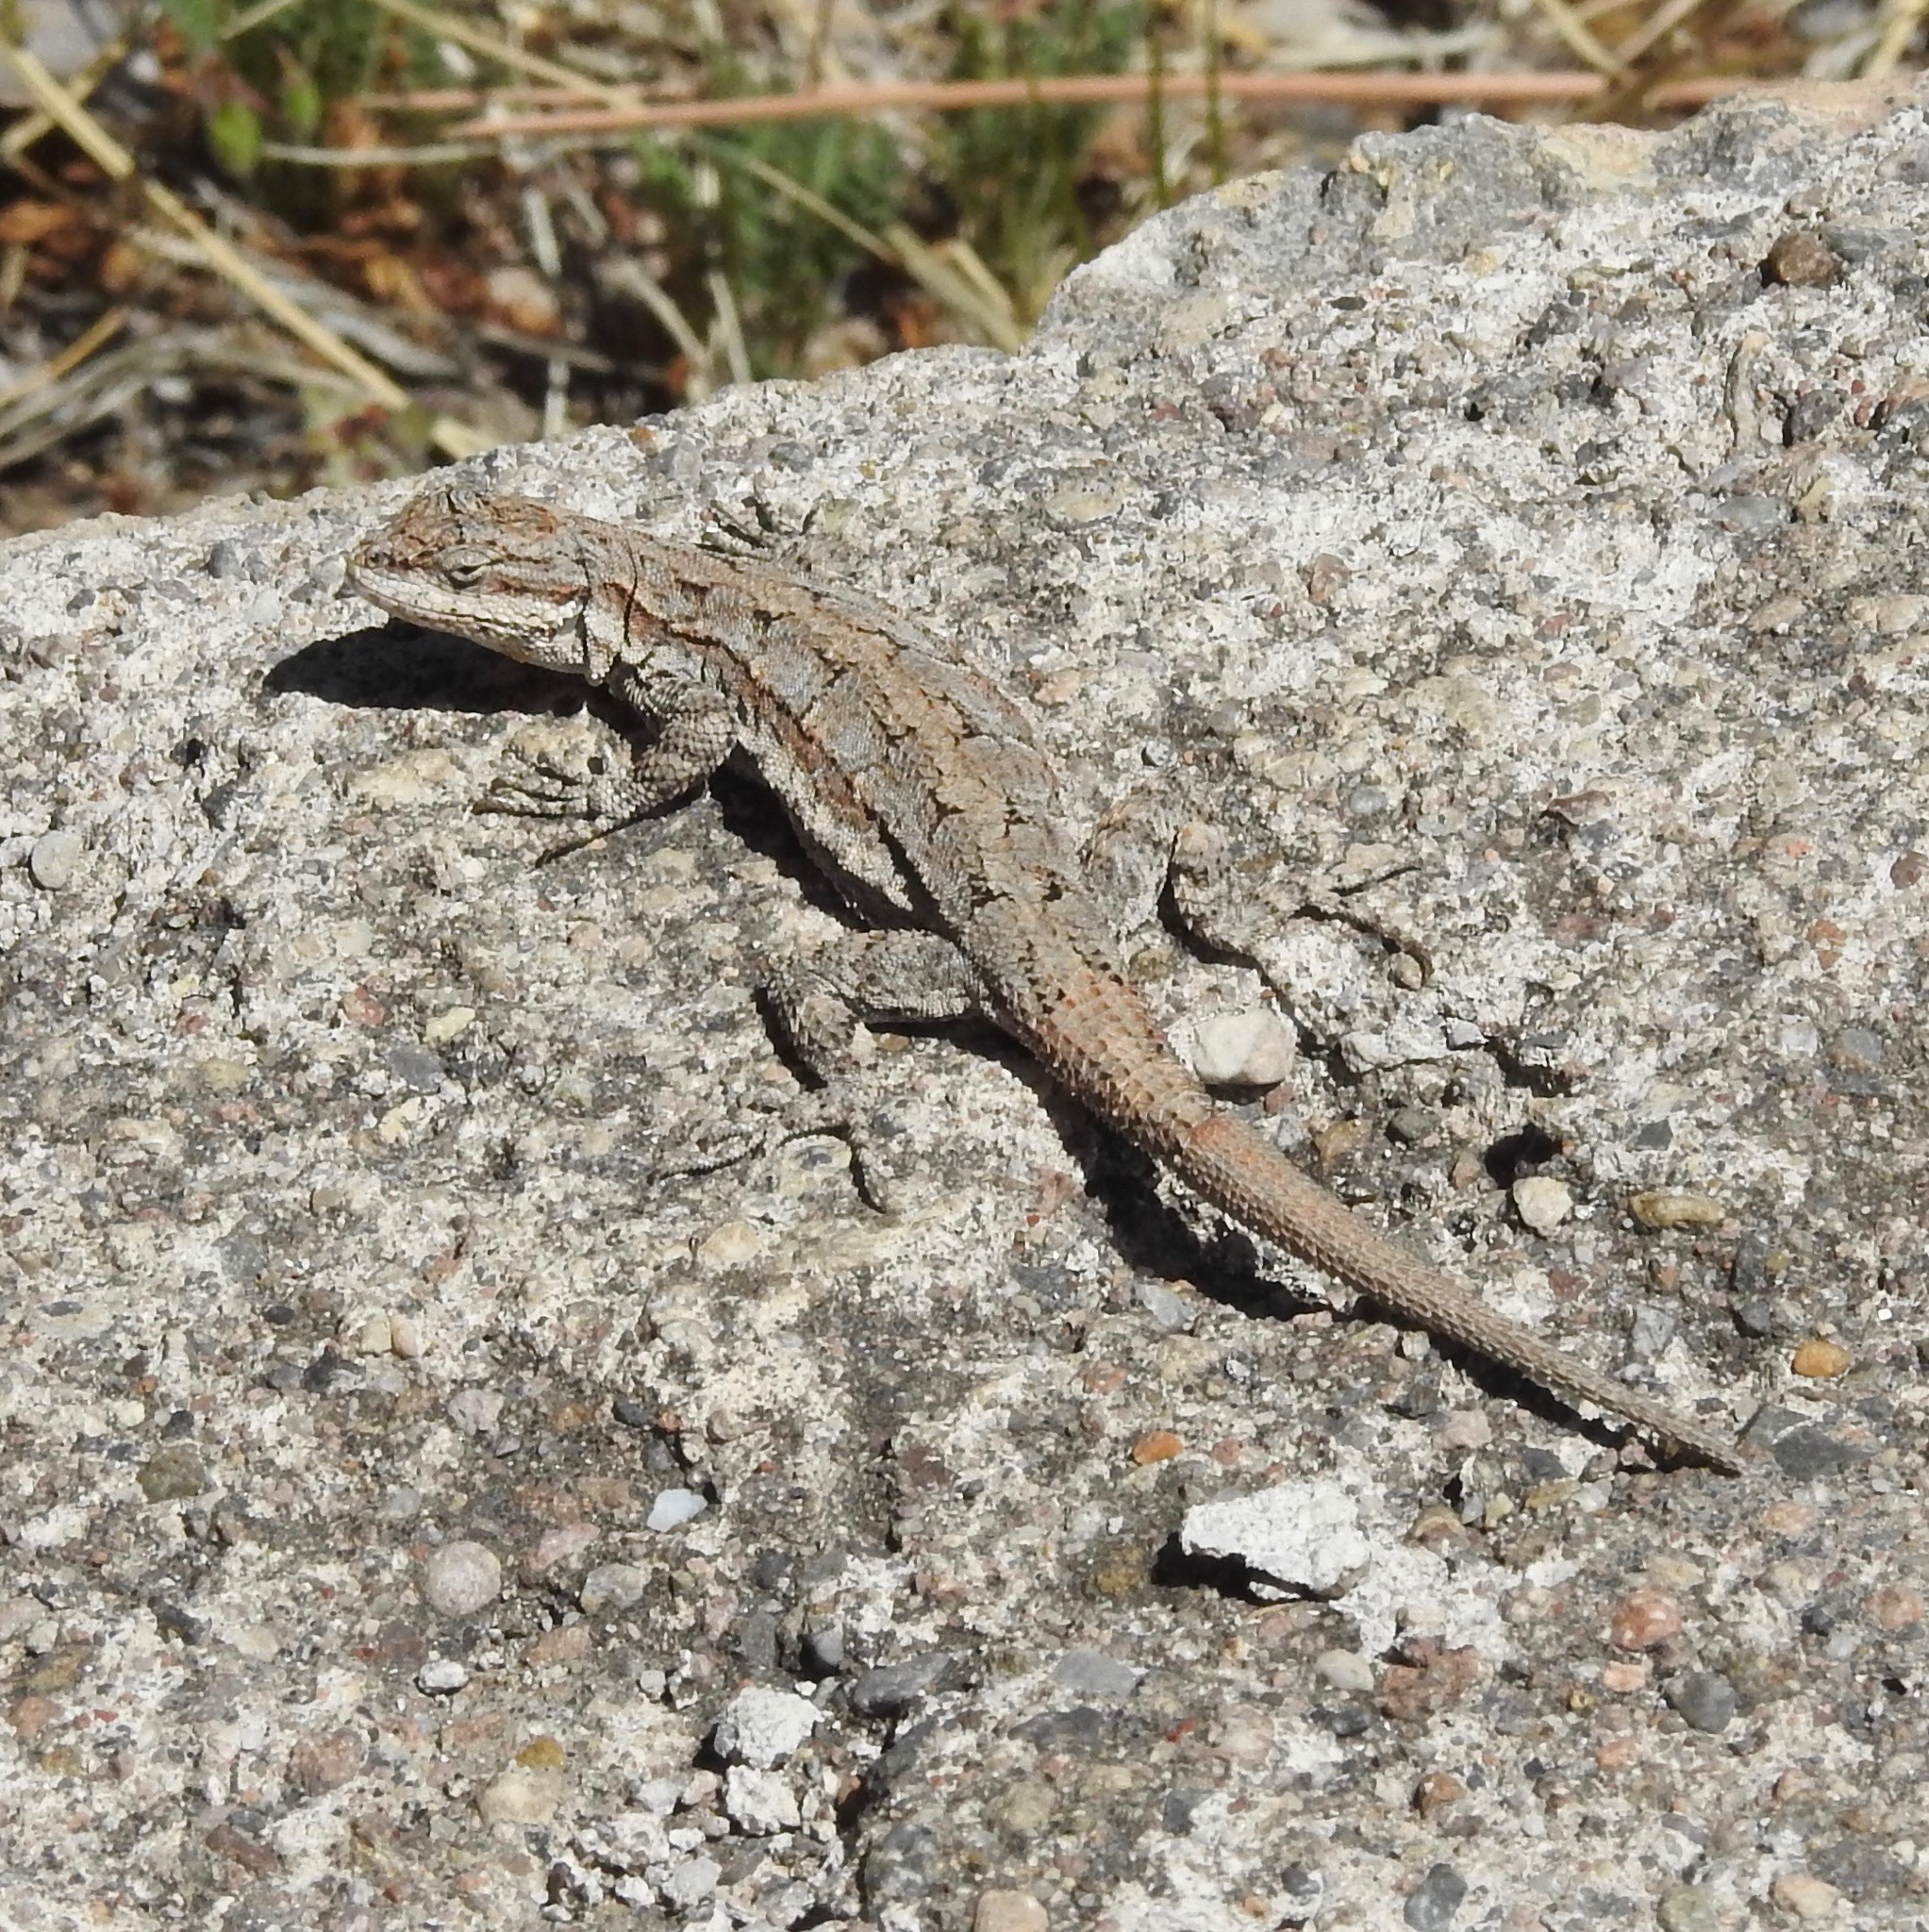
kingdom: Animalia
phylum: Chordata
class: Squamata
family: Phrynosomatidae
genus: Urosaurus
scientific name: Urosaurus ornatus
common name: Ornate tree lizard
